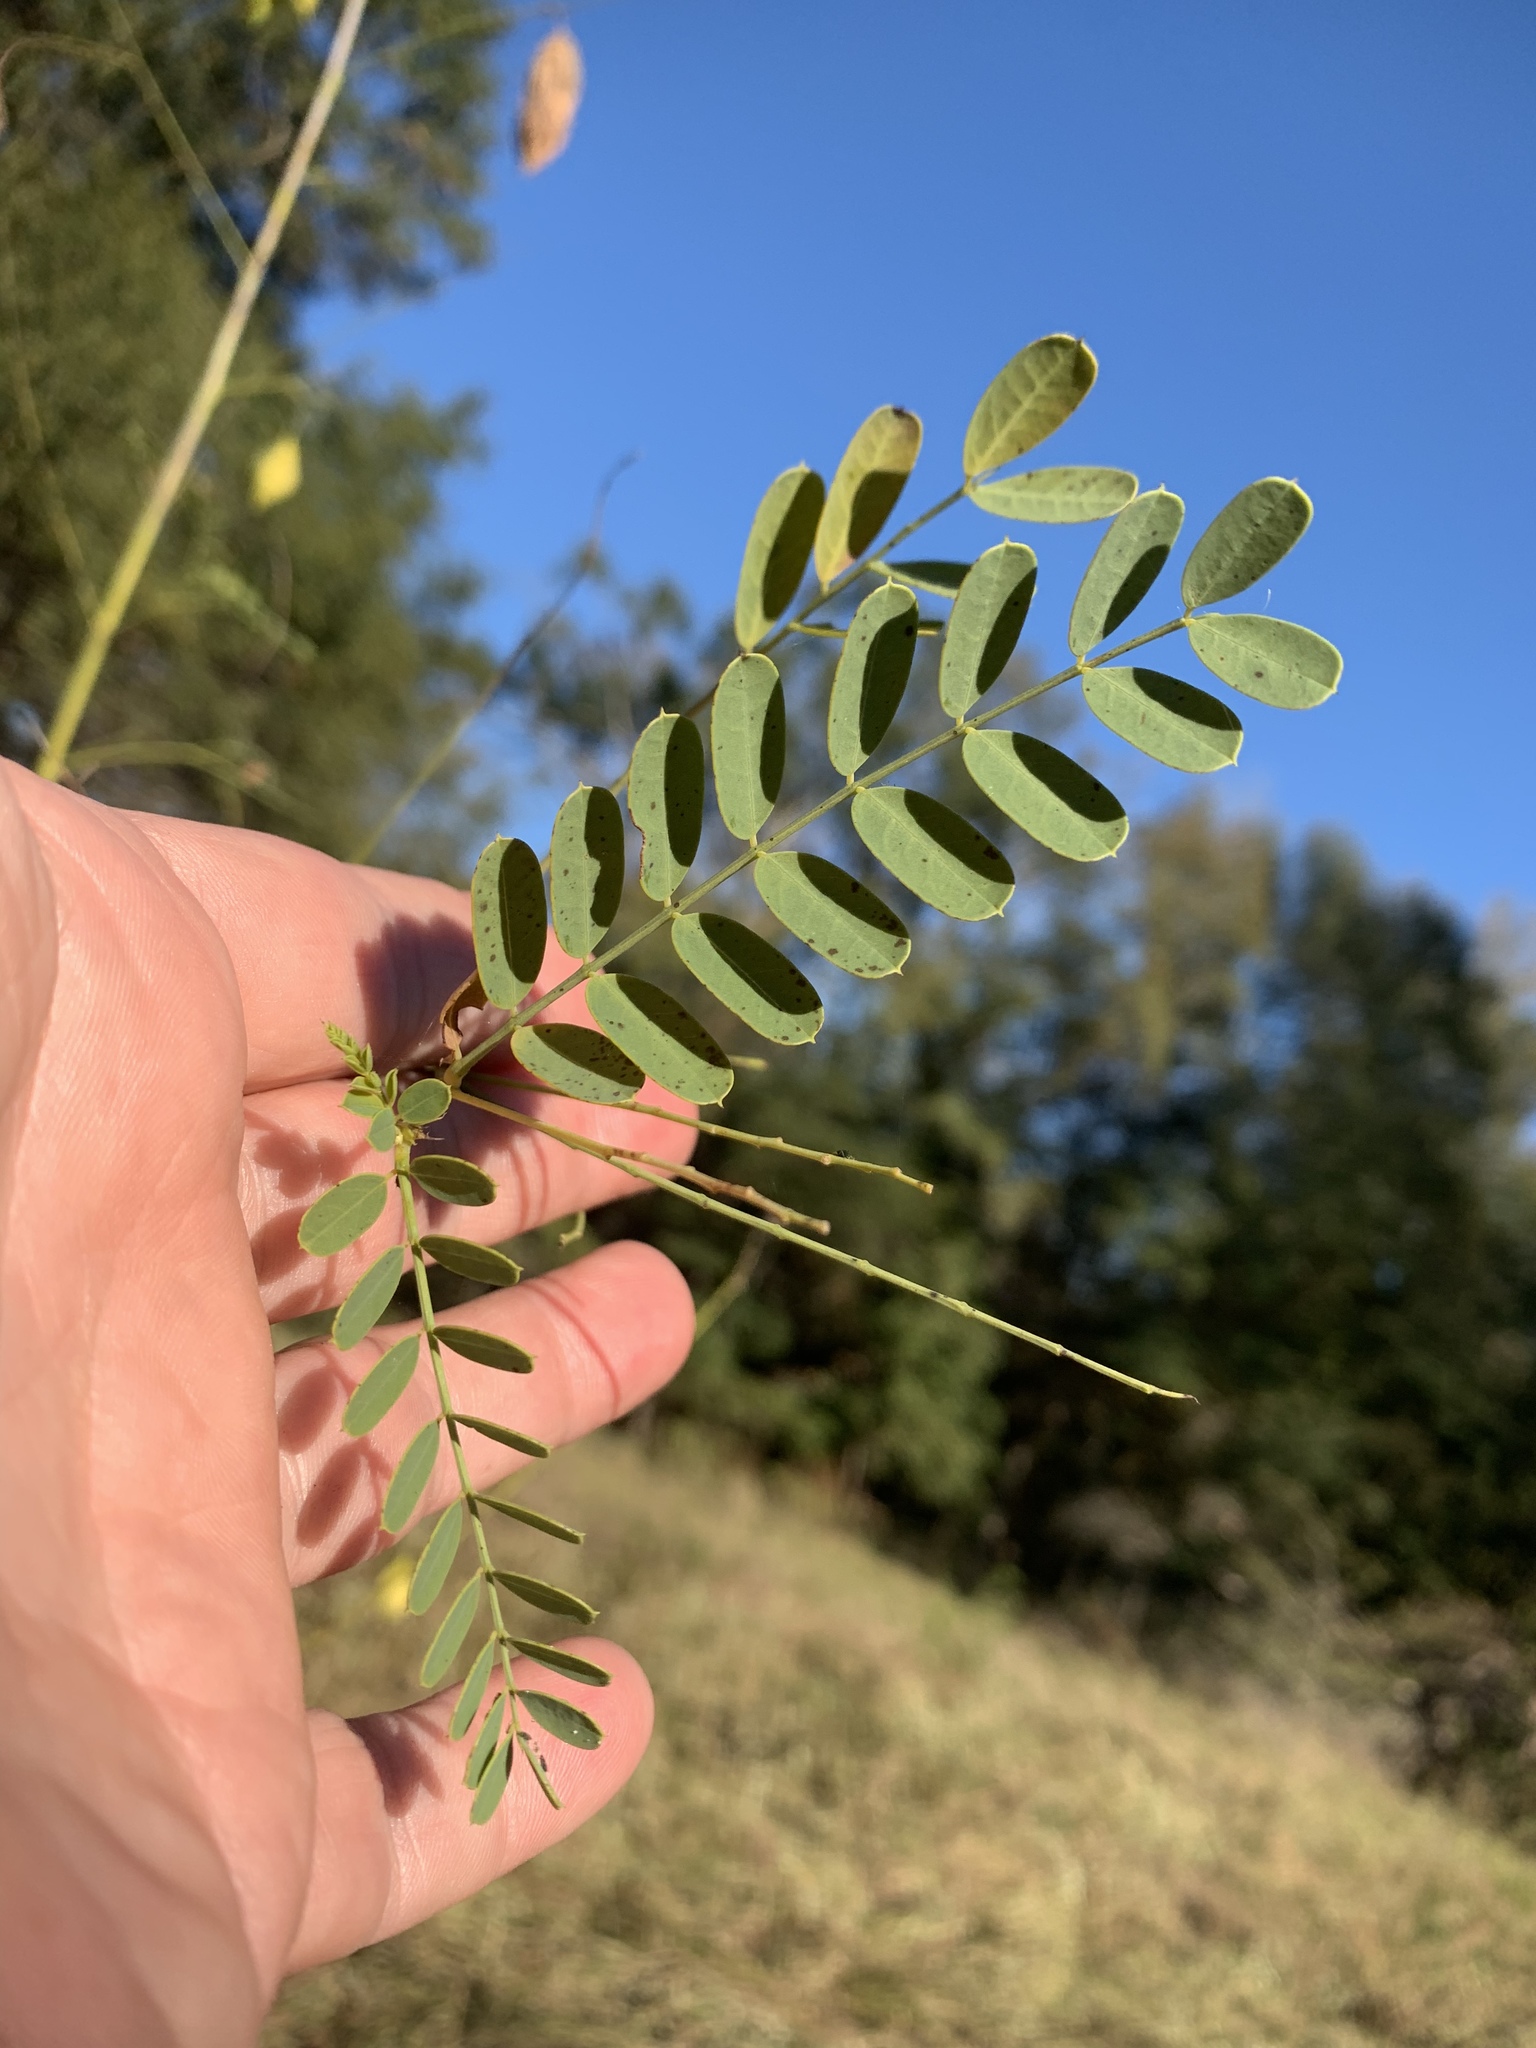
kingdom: Plantae
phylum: Tracheophyta
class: Magnoliopsida
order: Fabales
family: Fabaceae
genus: Sesbania
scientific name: Sesbania vesicaria
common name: Bagpod
